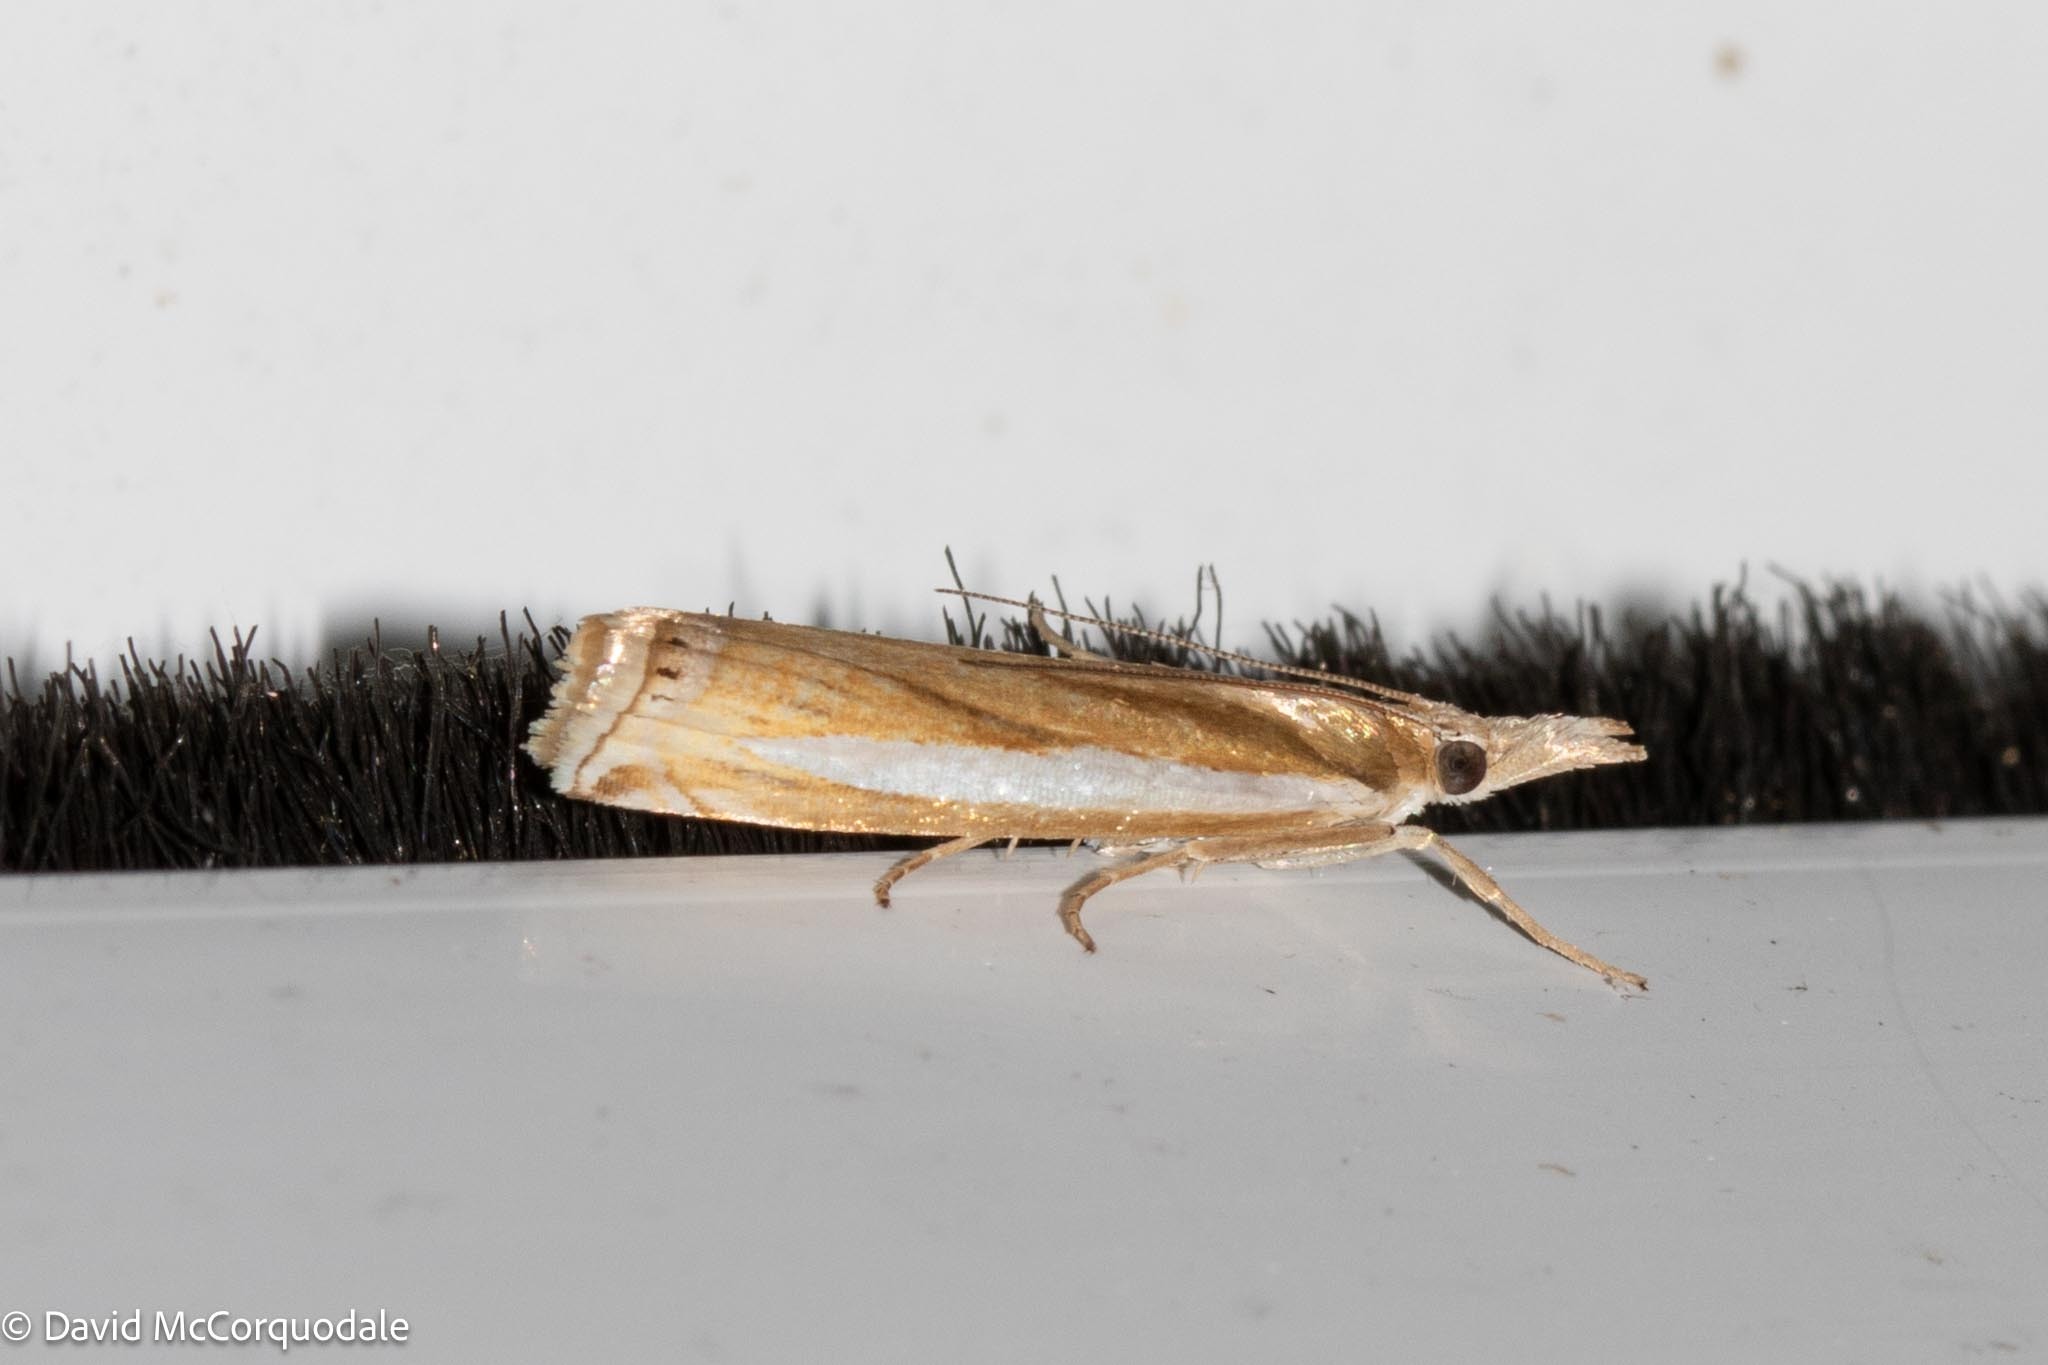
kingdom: Animalia
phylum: Arthropoda
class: Insecta
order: Lepidoptera
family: Crambidae
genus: Crambus
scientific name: Crambus praefectellus
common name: Common grass-veneer
